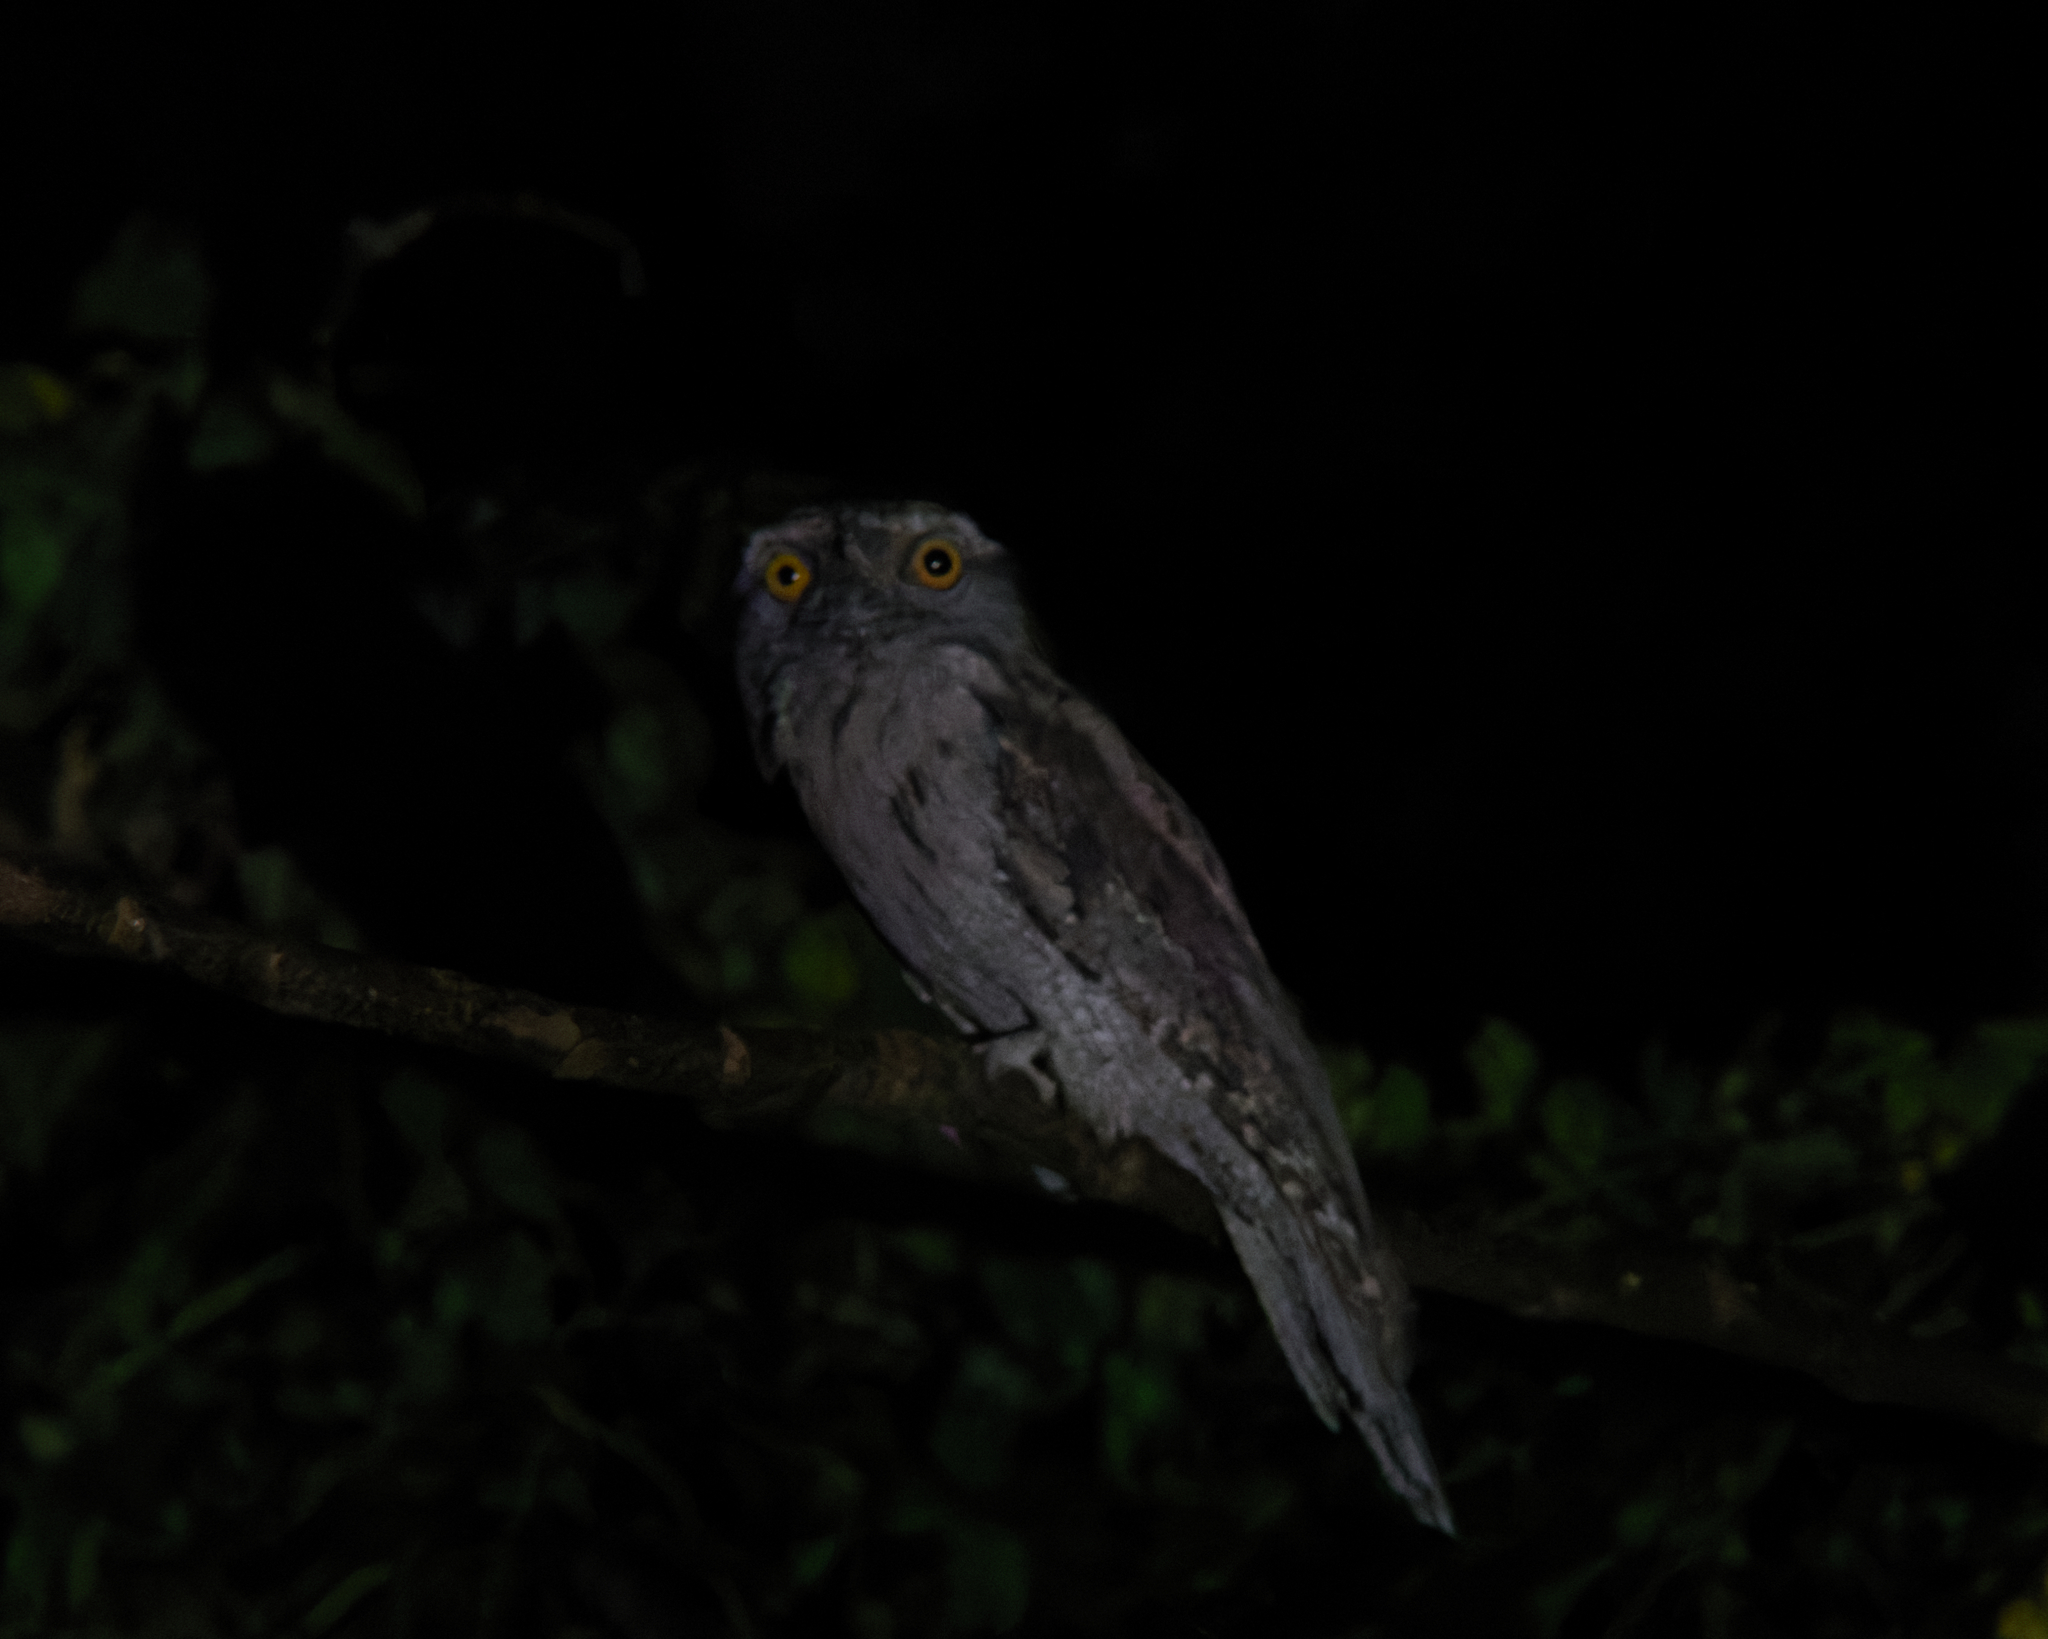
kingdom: Animalia
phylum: Chordata
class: Aves
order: Caprimulgiformes
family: Podargidae
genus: Podargus
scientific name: Podargus strigoides
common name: Tawny frogmouth
